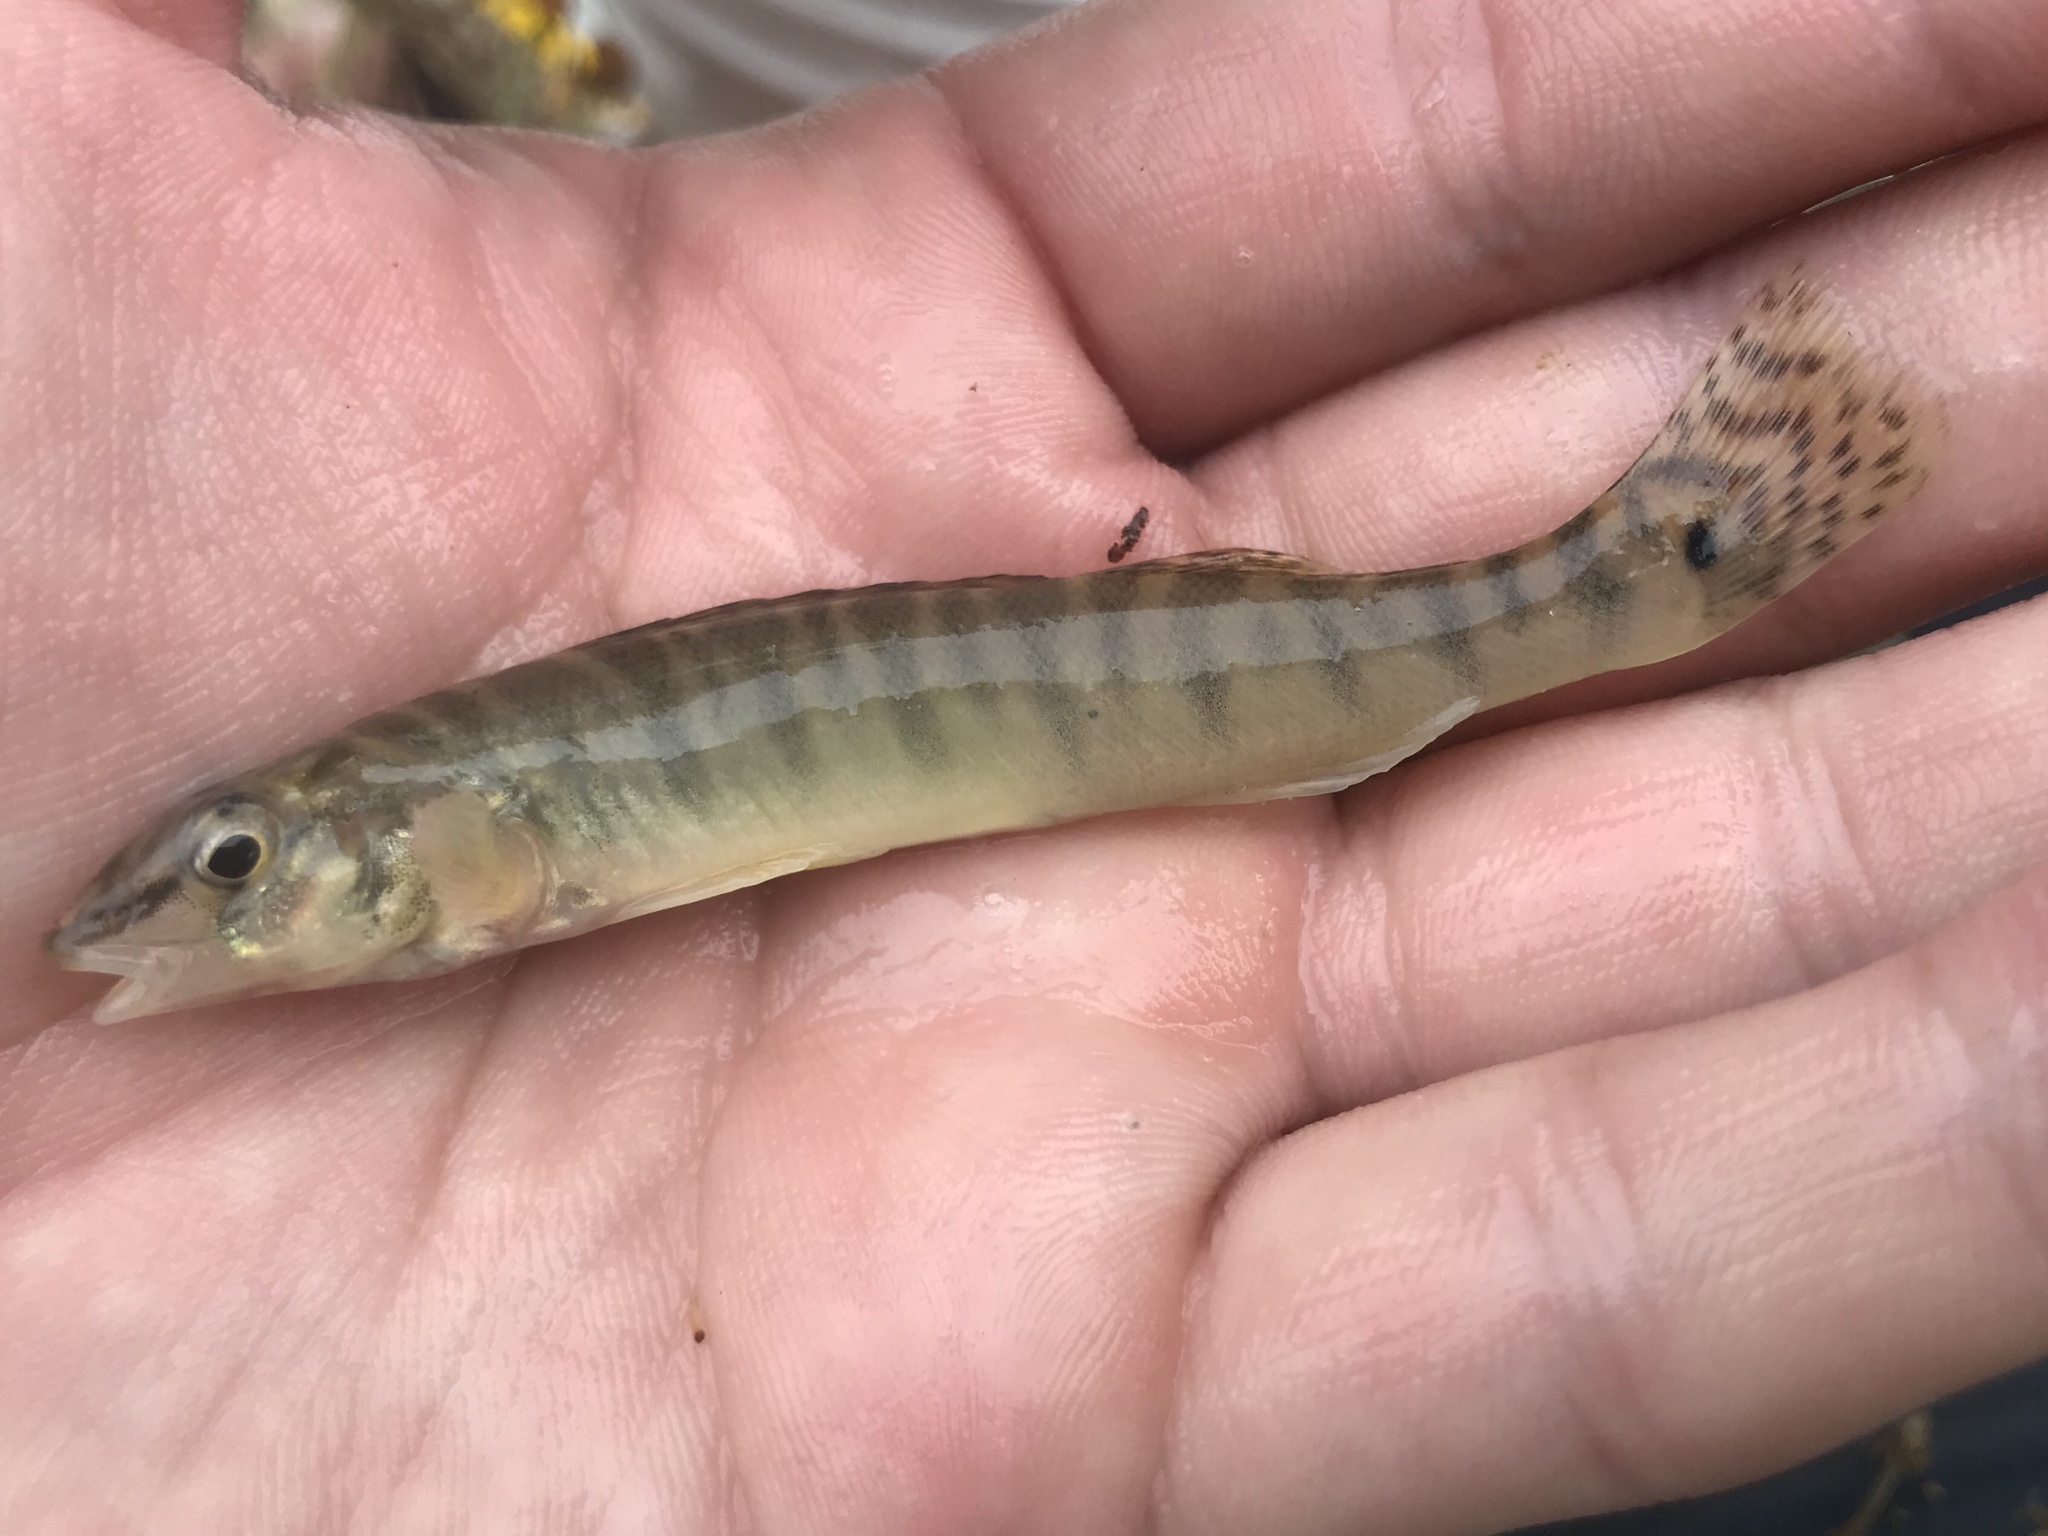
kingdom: Animalia
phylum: Chordata
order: Perciformes
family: Percidae
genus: Percina
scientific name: Percina carbonaria
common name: Texas logperch
